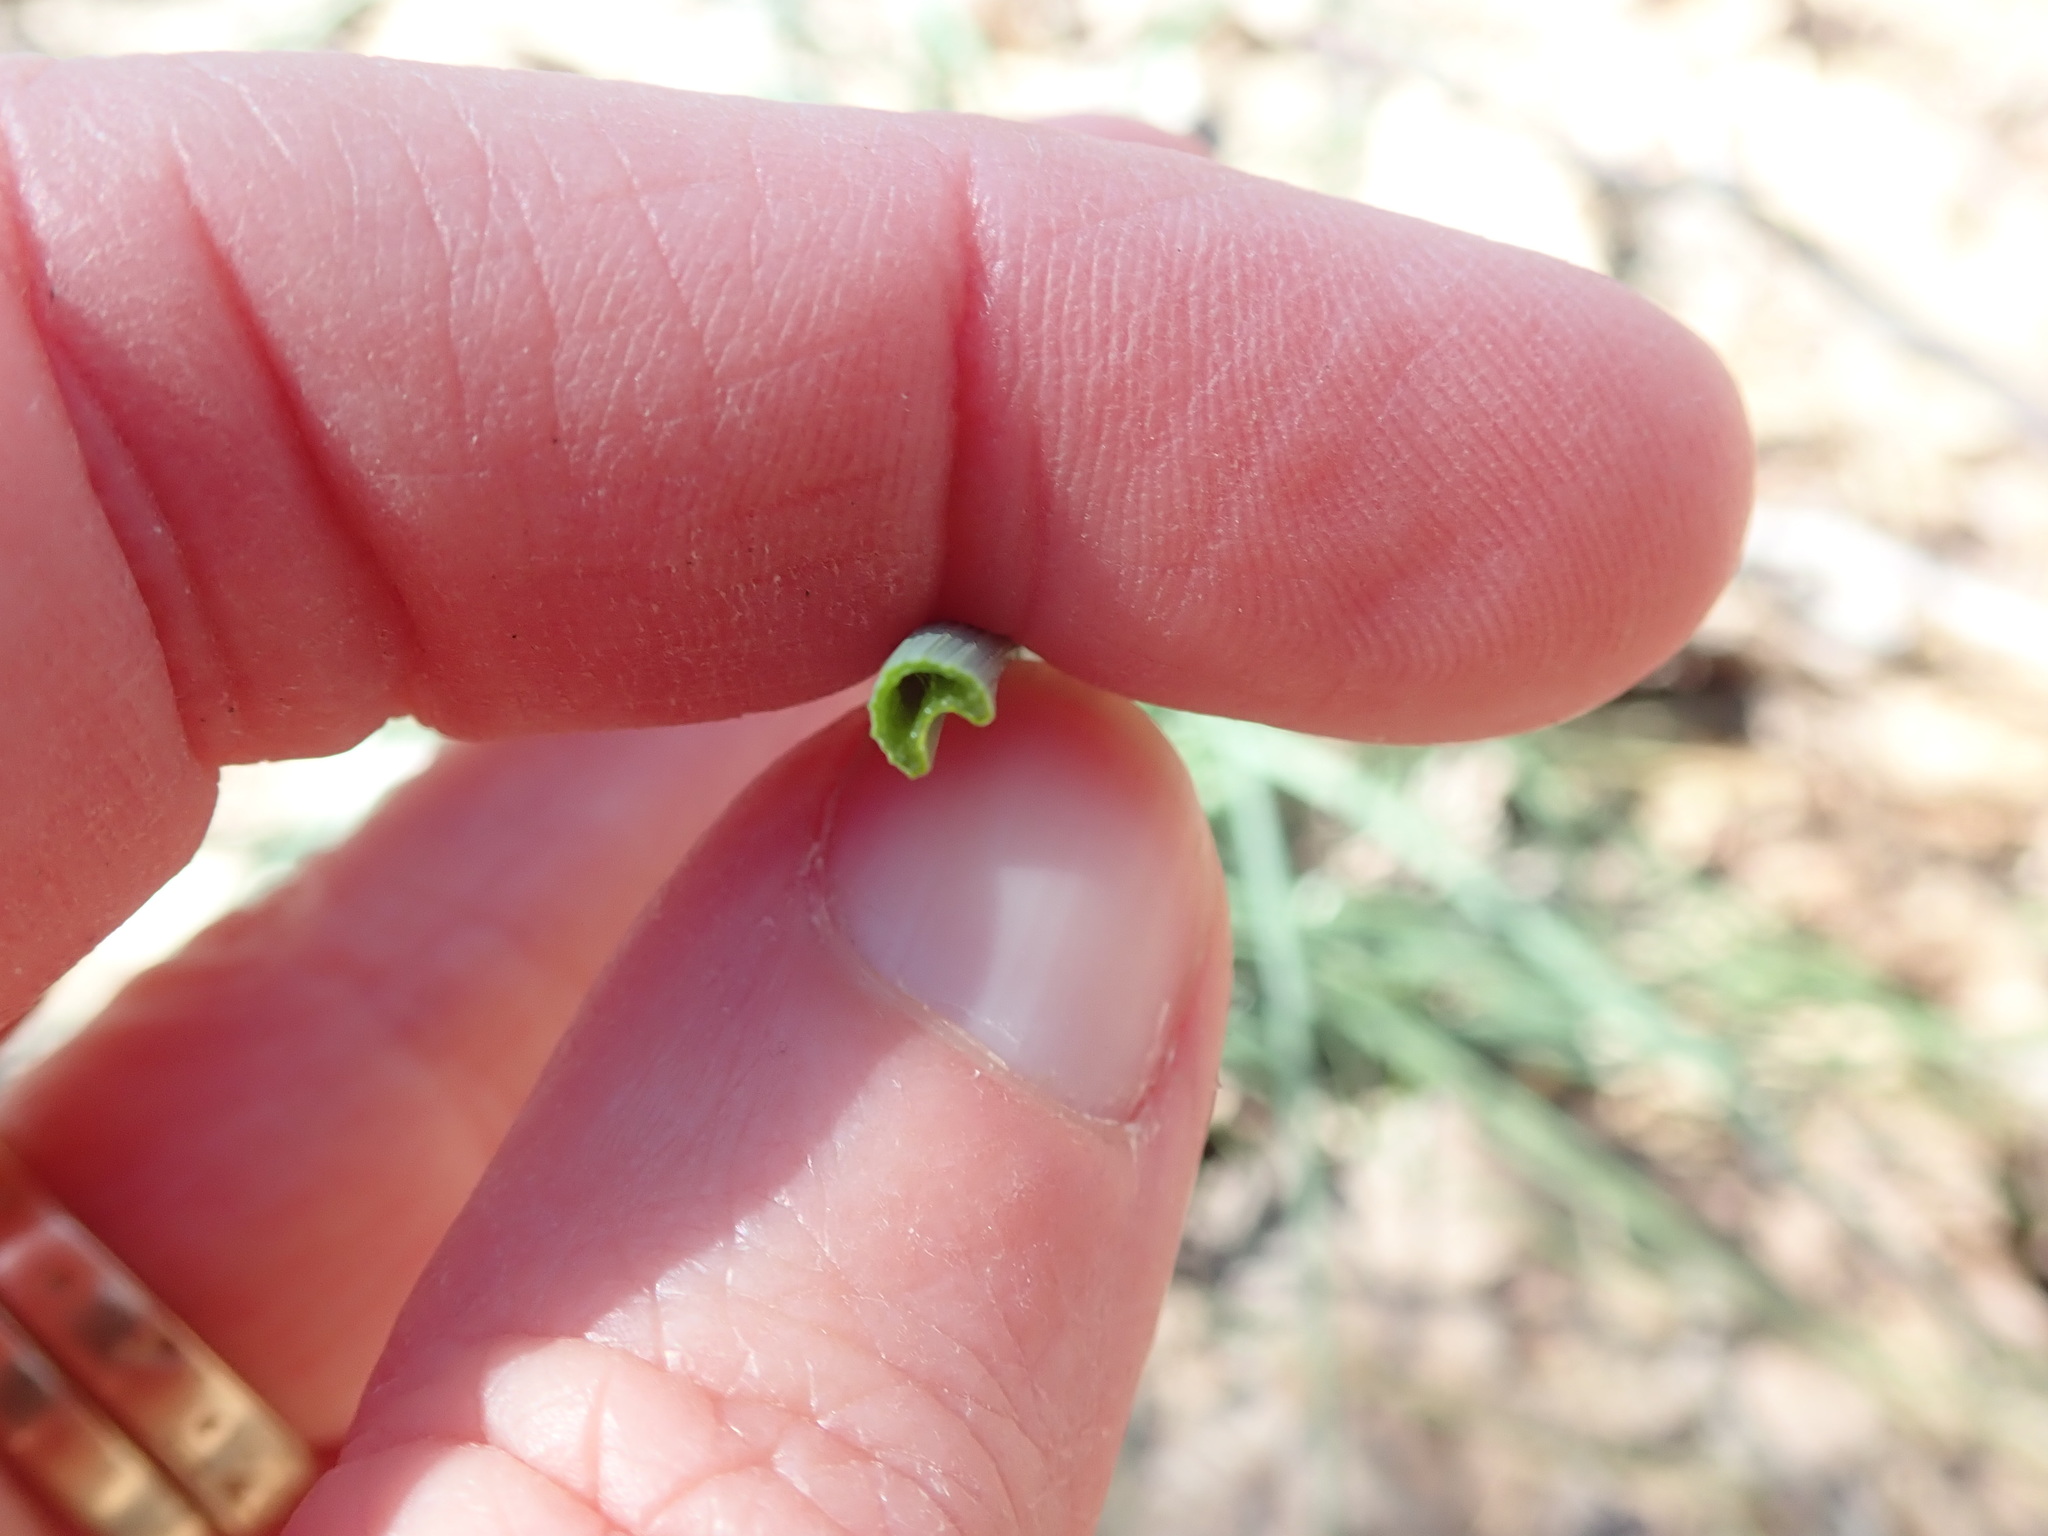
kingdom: Plantae
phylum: Tracheophyta
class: Liliopsida
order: Asparagales
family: Amaryllidaceae
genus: Allium
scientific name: Allium vineale
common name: Crow garlic
